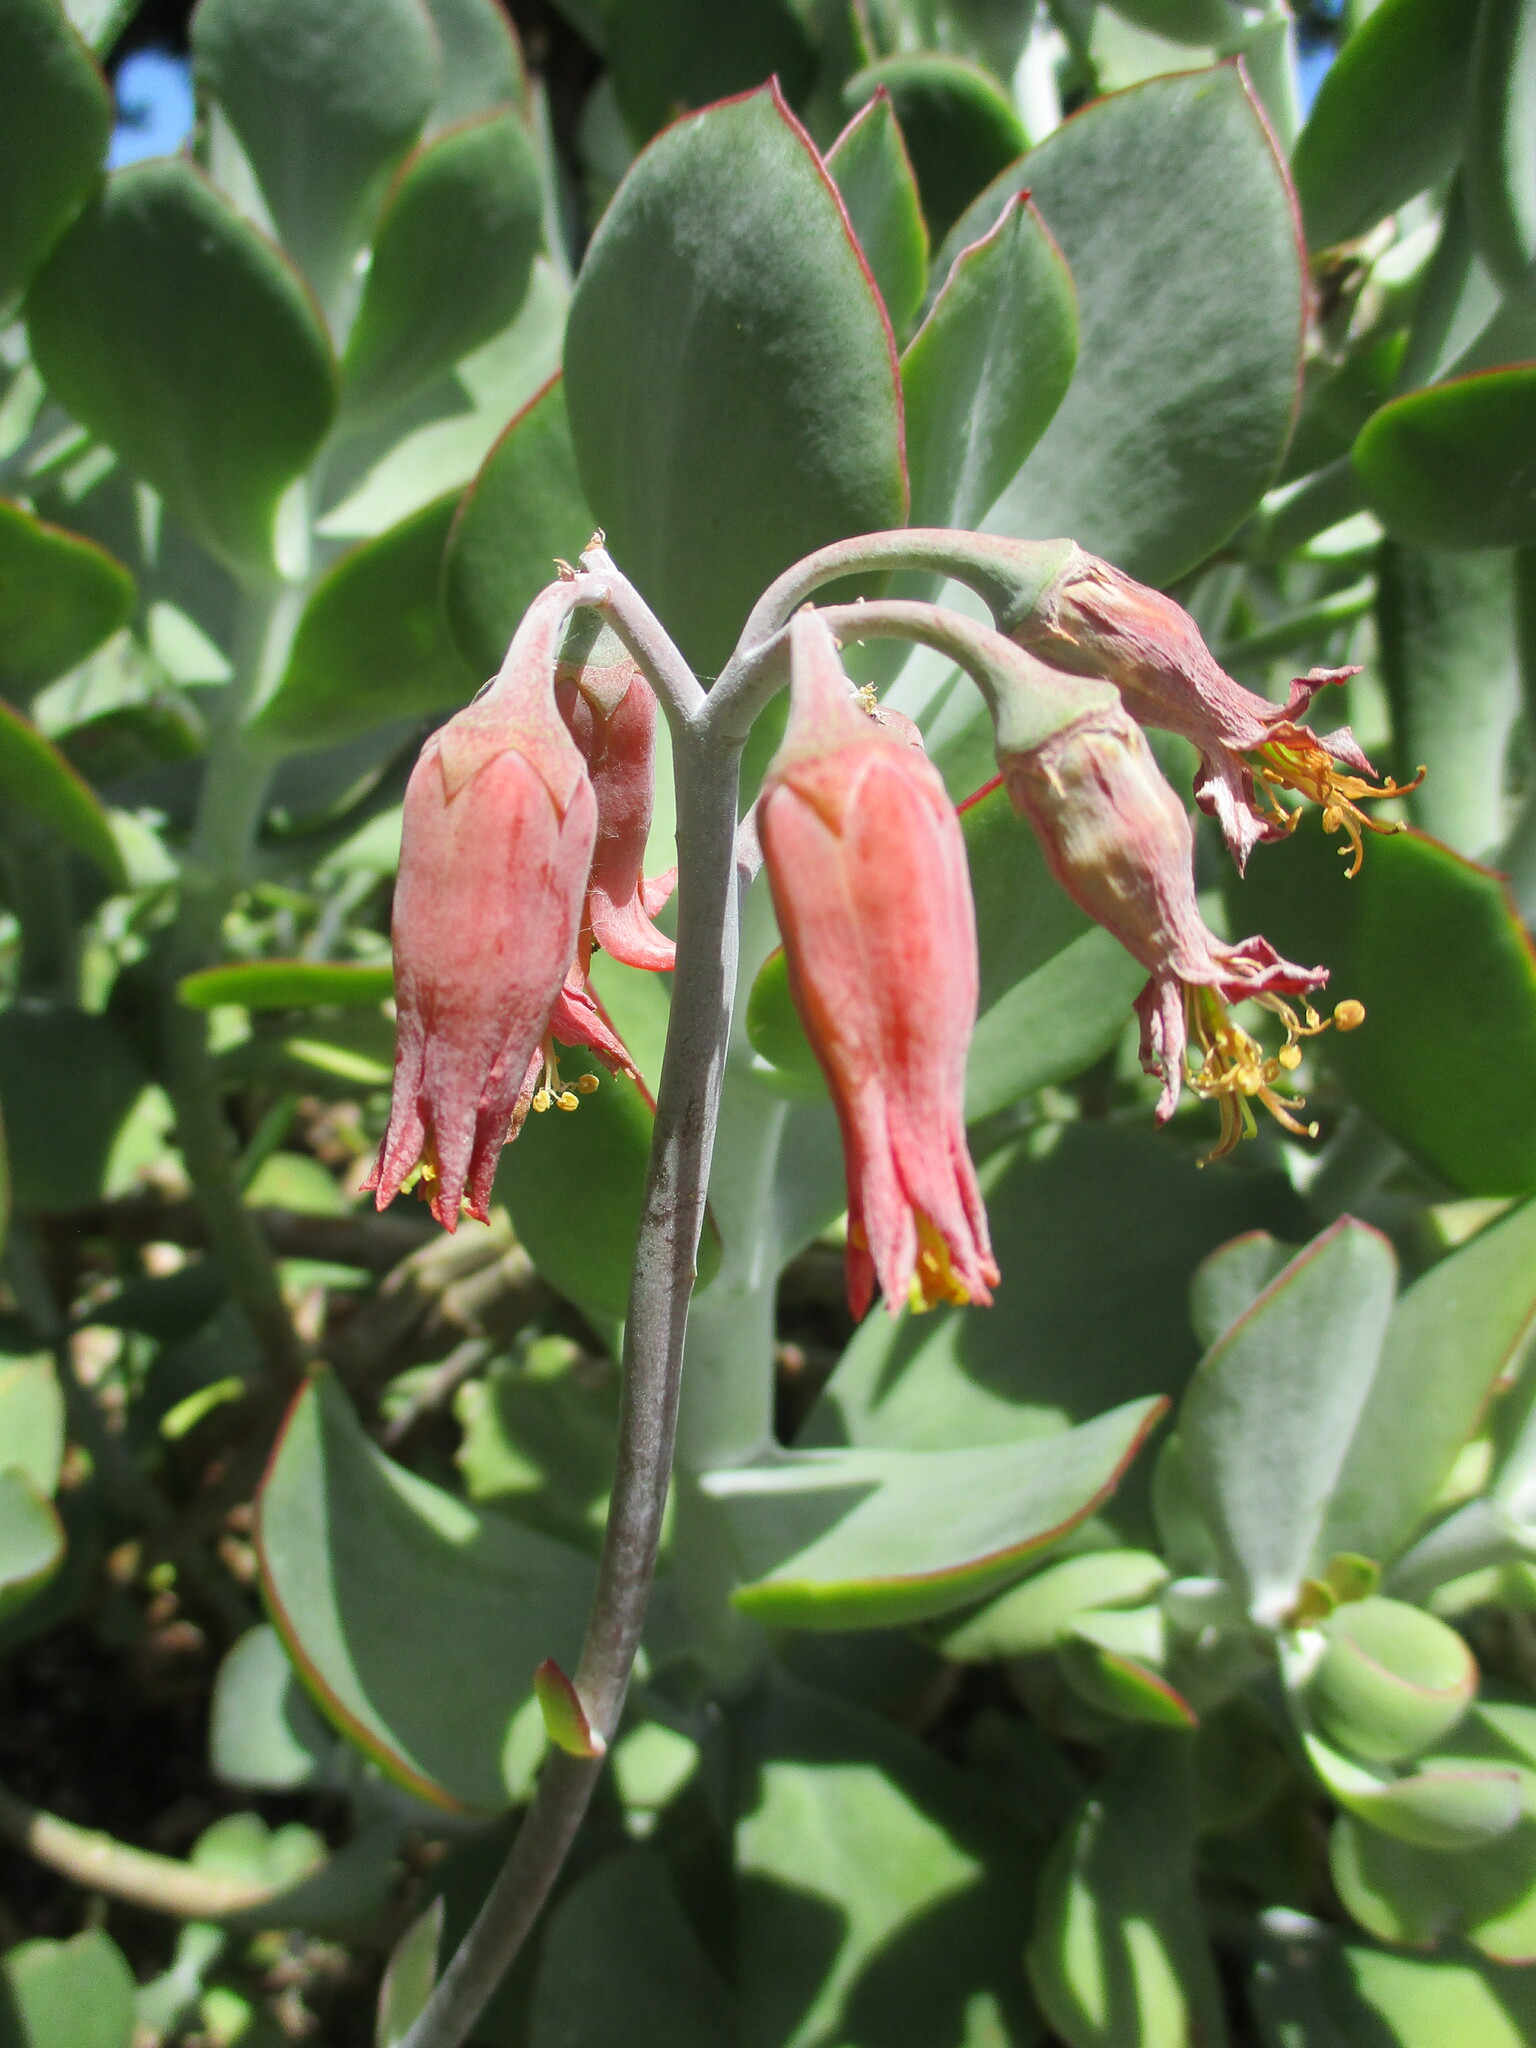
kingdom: Plantae
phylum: Tracheophyta
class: Magnoliopsida
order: Saxifragales
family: Crassulaceae
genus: Cotyledon
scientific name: Cotyledon orbiculata
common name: Pig's ear
